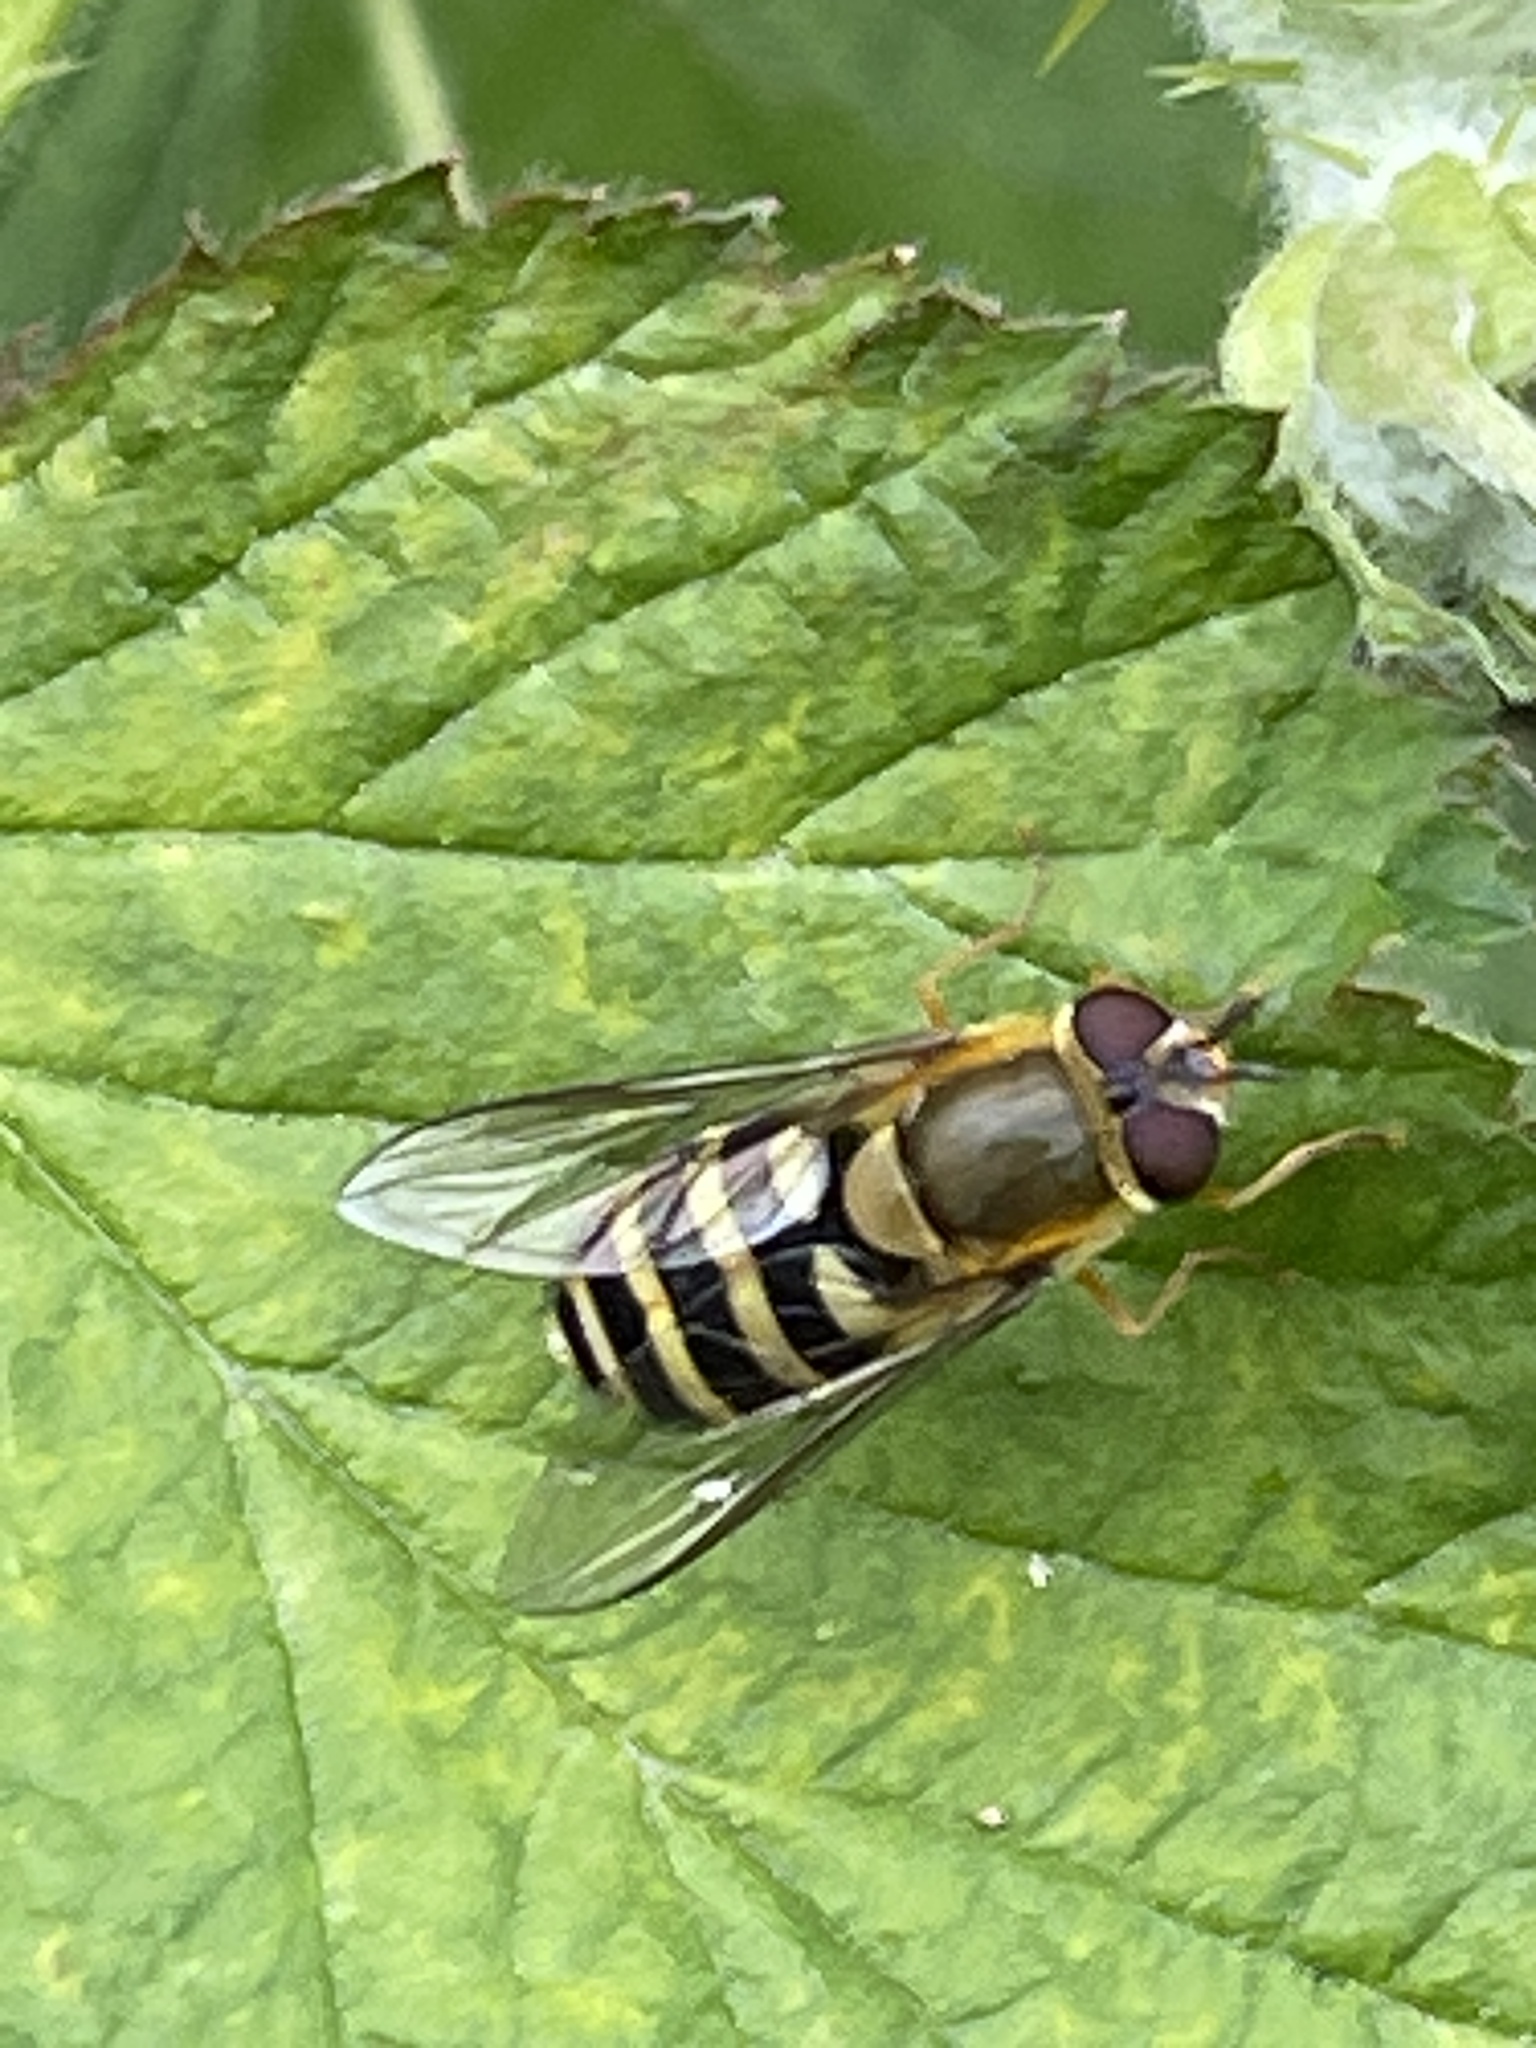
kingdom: Animalia
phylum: Arthropoda
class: Insecta
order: Diptera
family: Syrphidae
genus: Syrphus
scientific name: Syrphus
